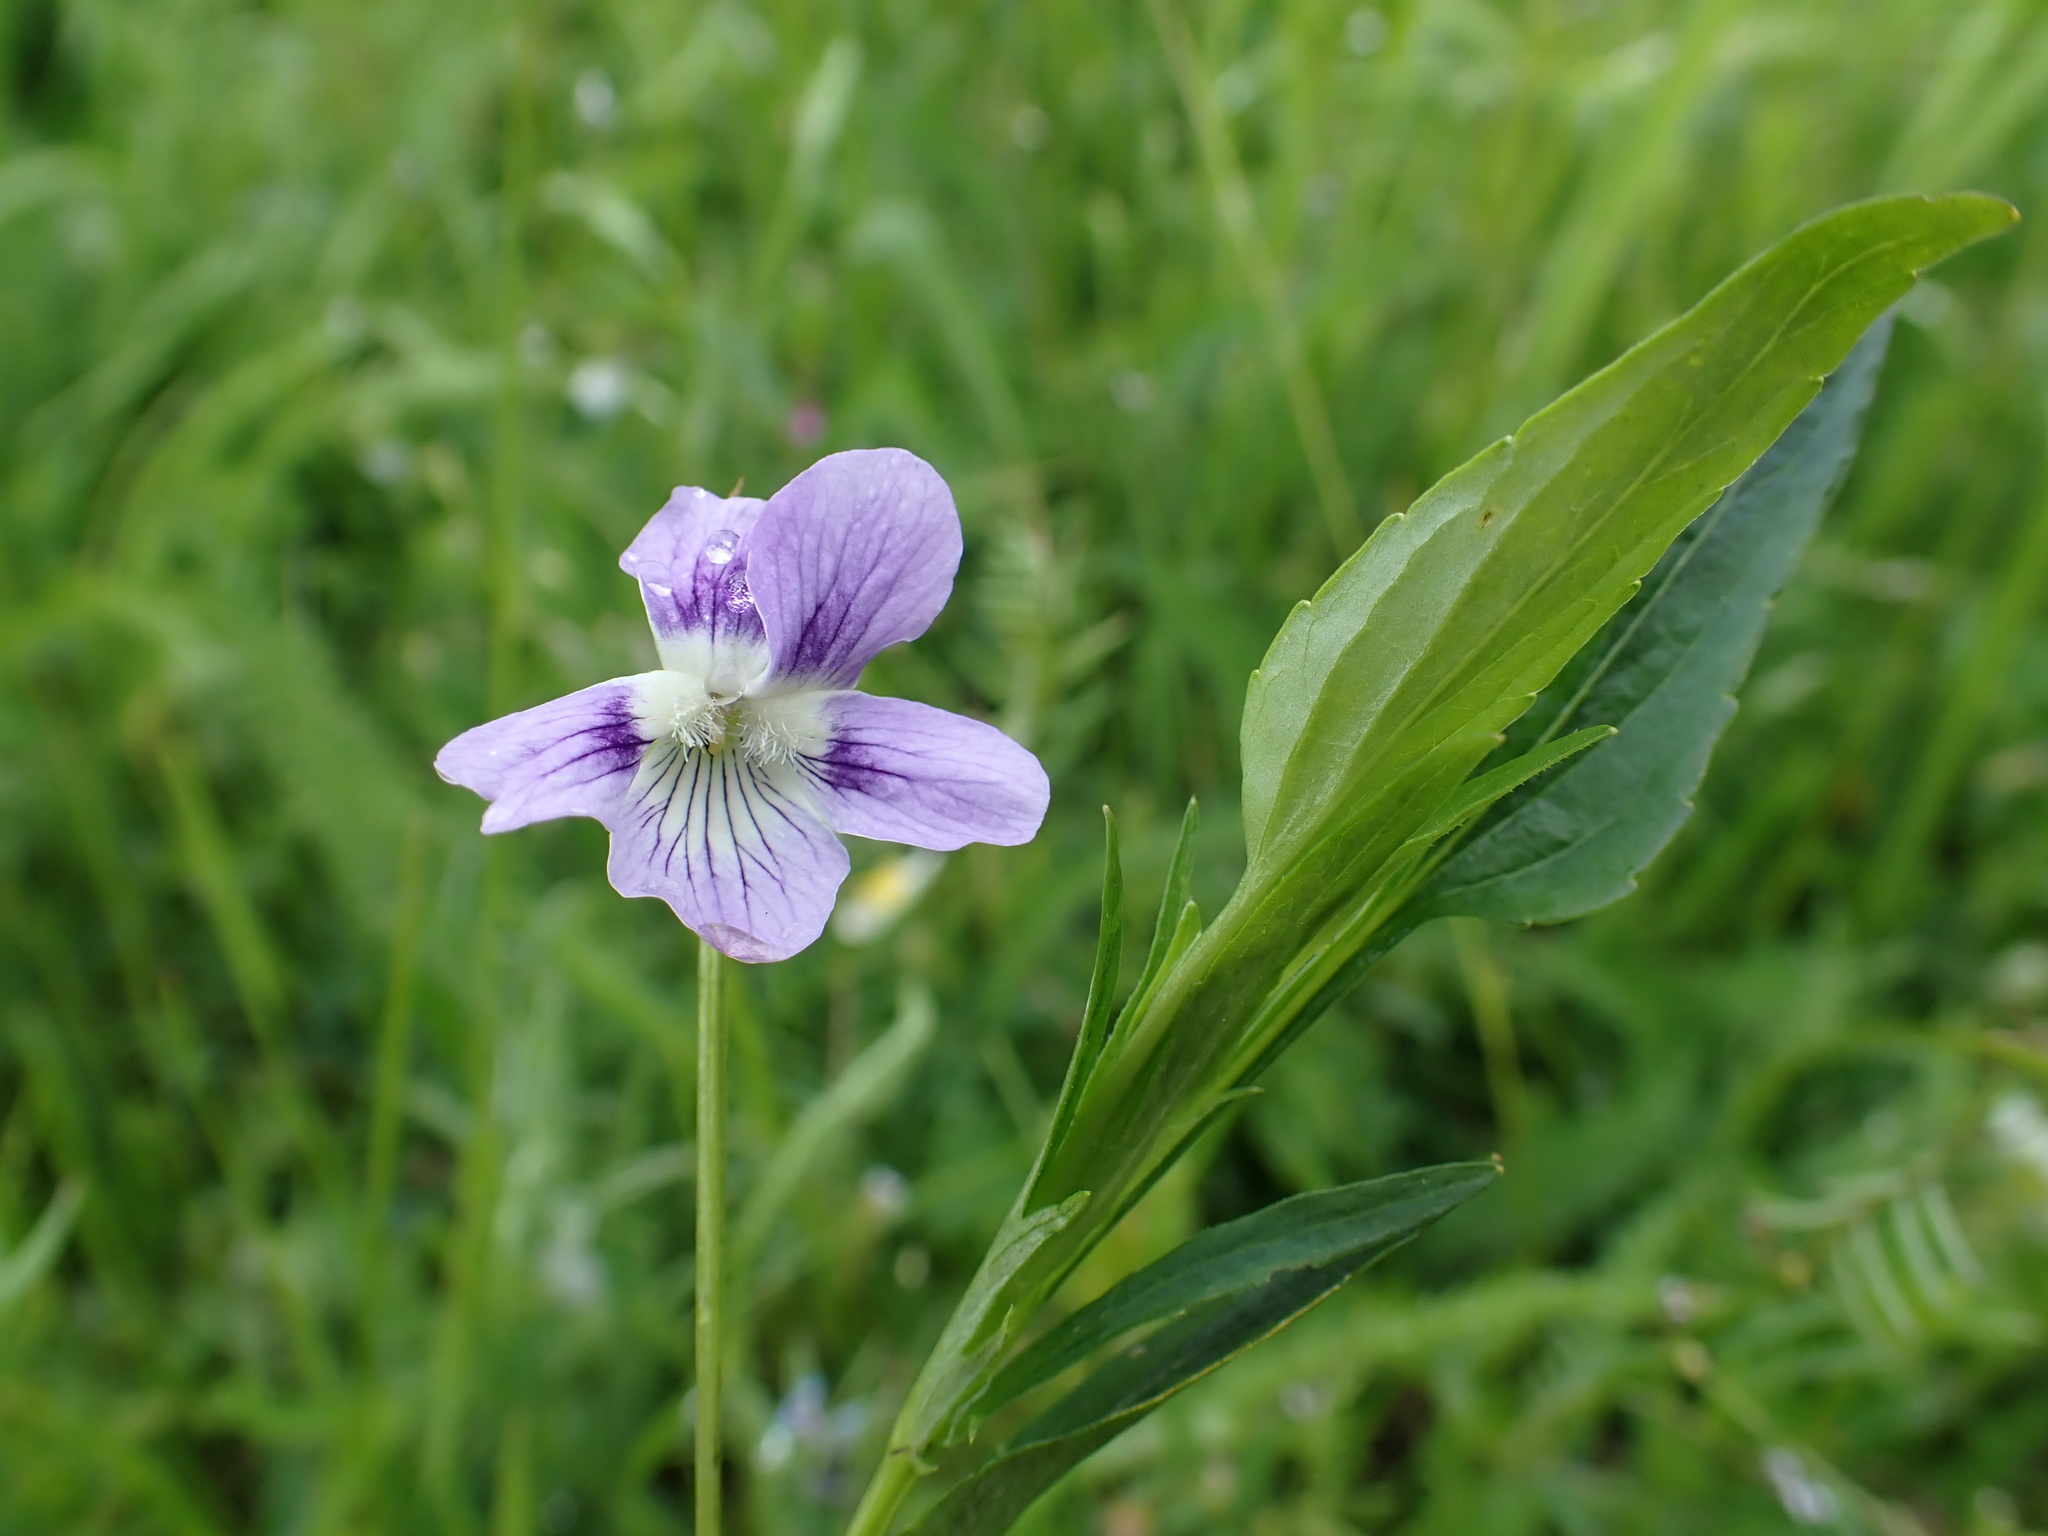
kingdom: Plantae
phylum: Tracheophyta
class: Magnoliopsida
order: Malpighiales
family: Violaceae
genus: Viola
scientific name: Viola pumila
